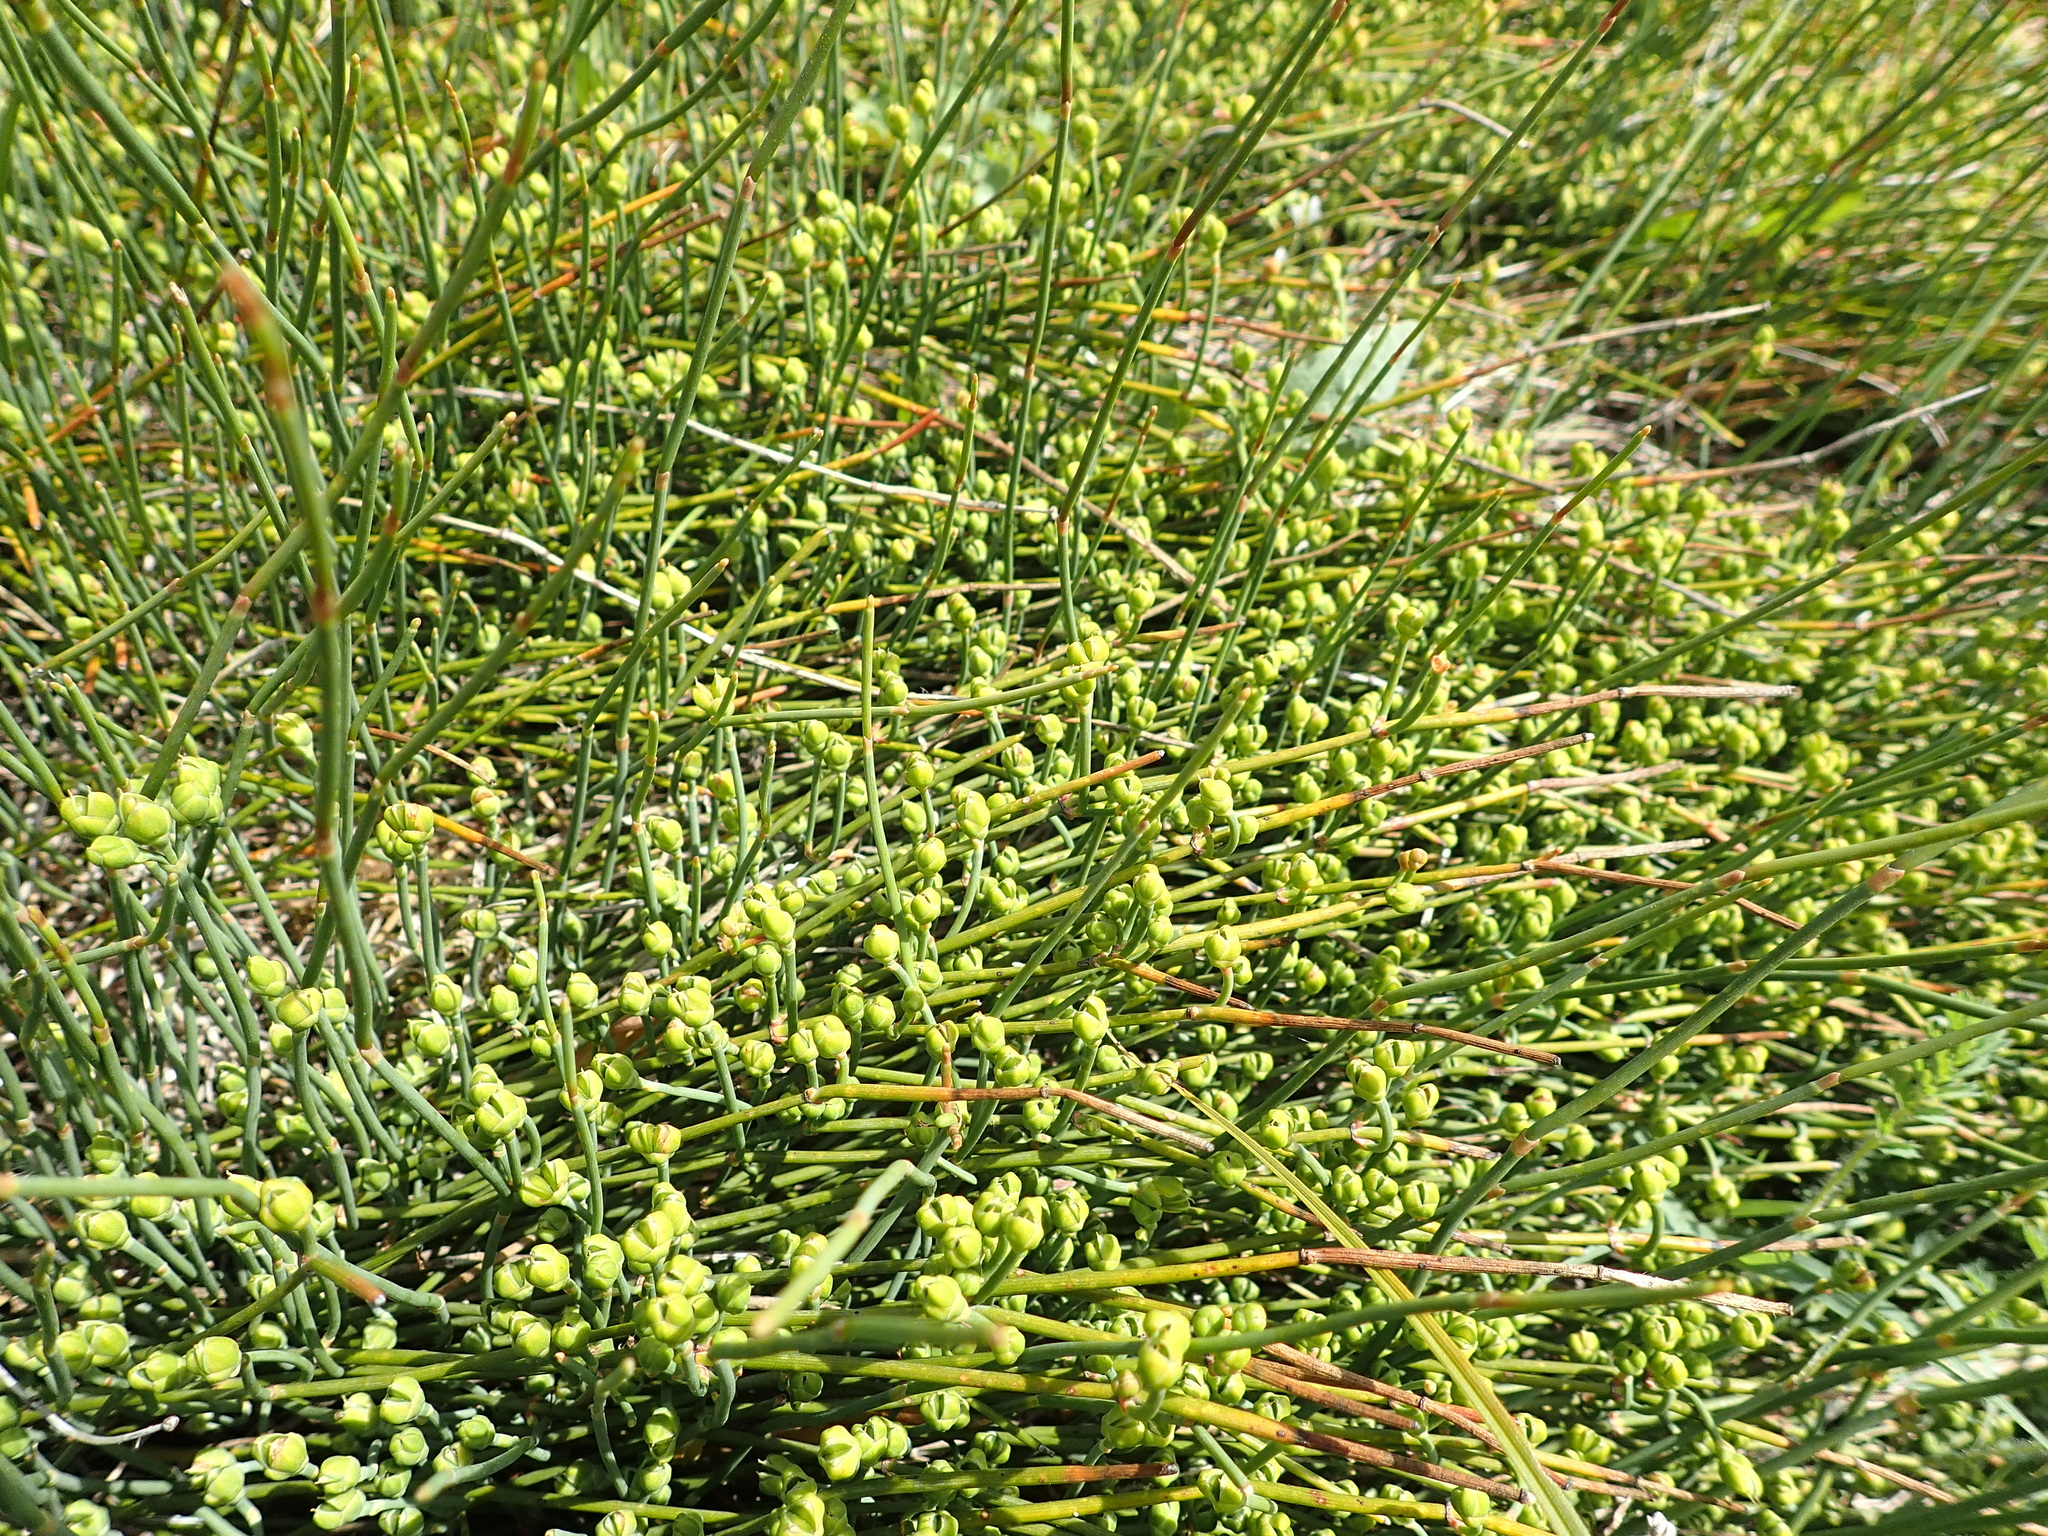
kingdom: Plantae
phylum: Tracheophyta
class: Gnetopsida
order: Ephedrales
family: Ephedraceae
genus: Ephedra
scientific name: Ephedra distachya
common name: Sea grape
